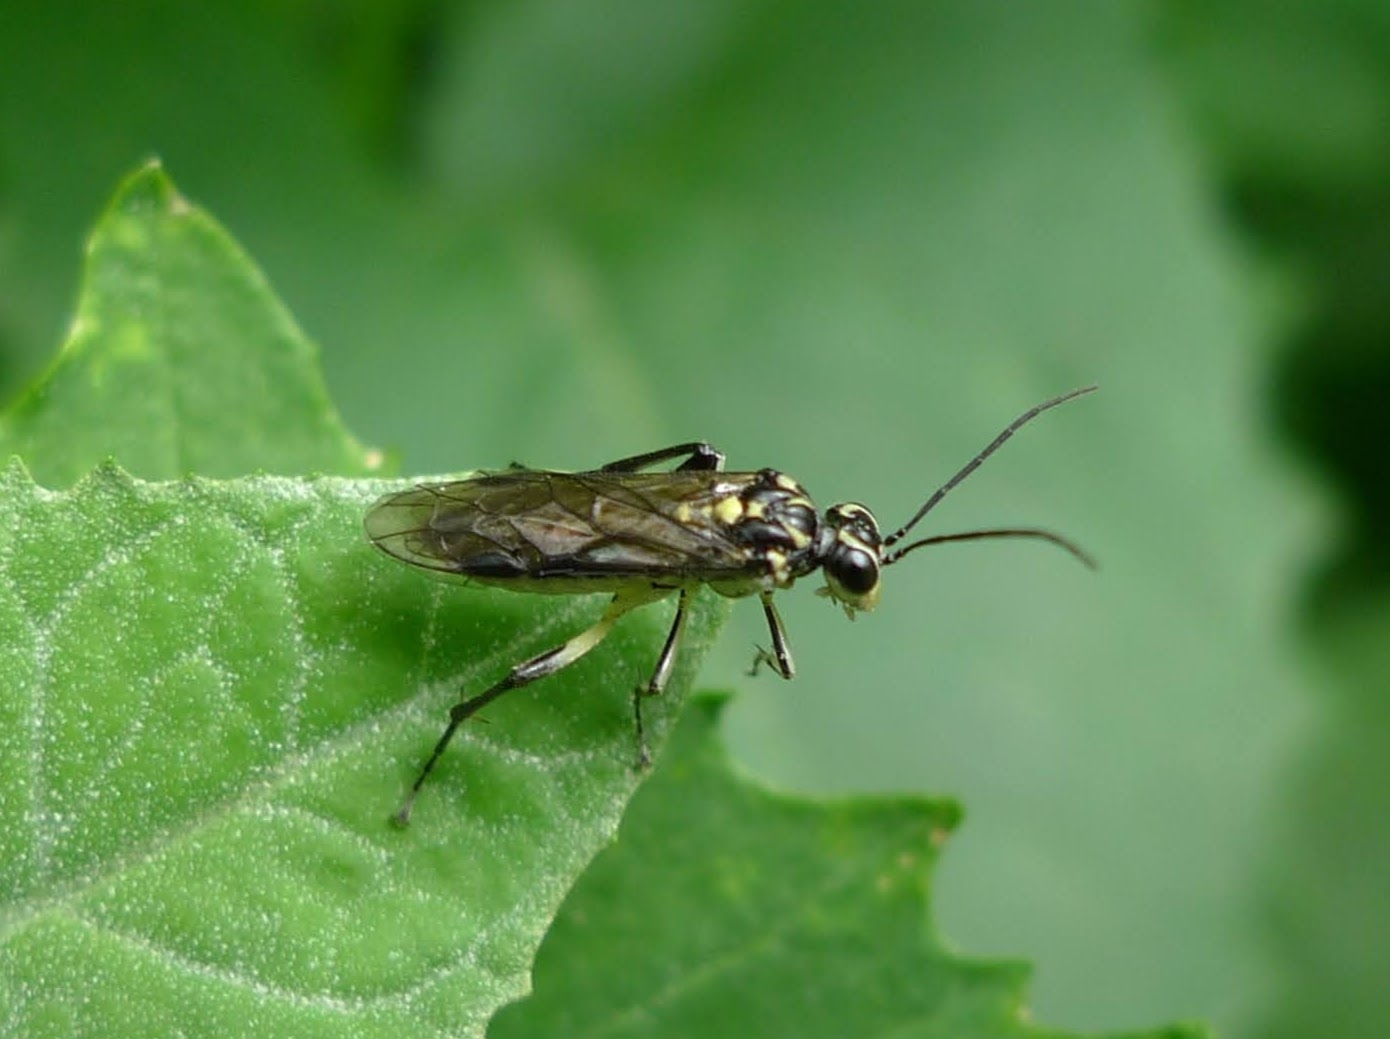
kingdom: Animalia
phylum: Arthropoda
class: Insecta
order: Hymenoptera
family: Tenthredinidae
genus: Pachyprotasis
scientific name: Pachyprotasis rapae
